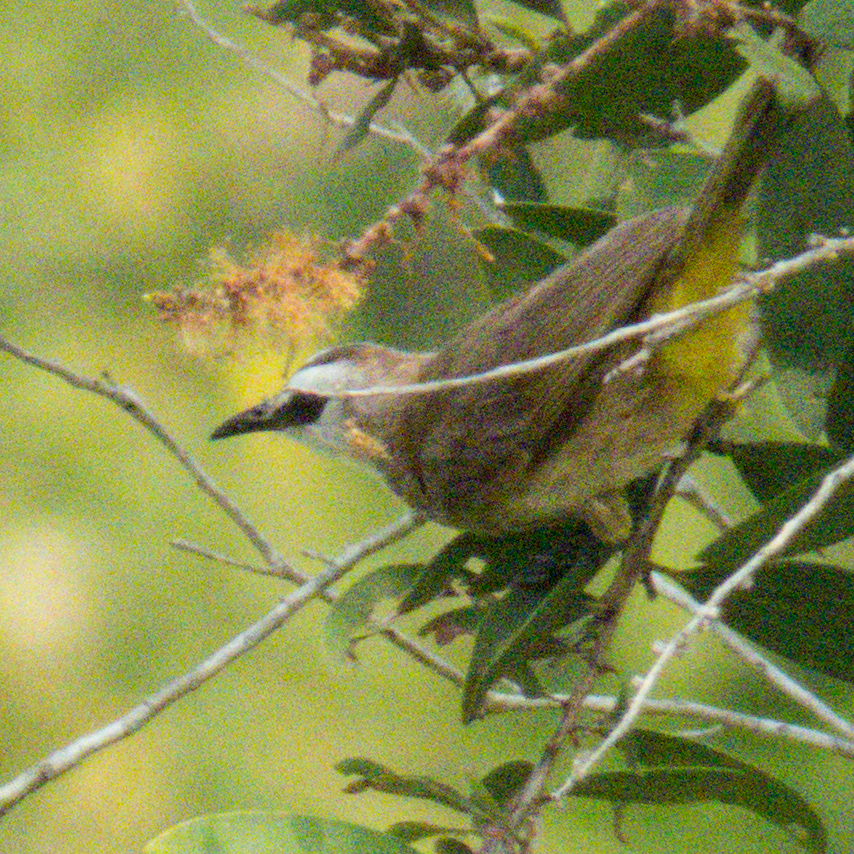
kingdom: Animalia
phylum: Chordata
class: Aves
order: Passeriformes
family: Pycnonotidae
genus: Pycnonotus
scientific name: Pycnonotus goiavier
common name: Yellow-vented bulbul
